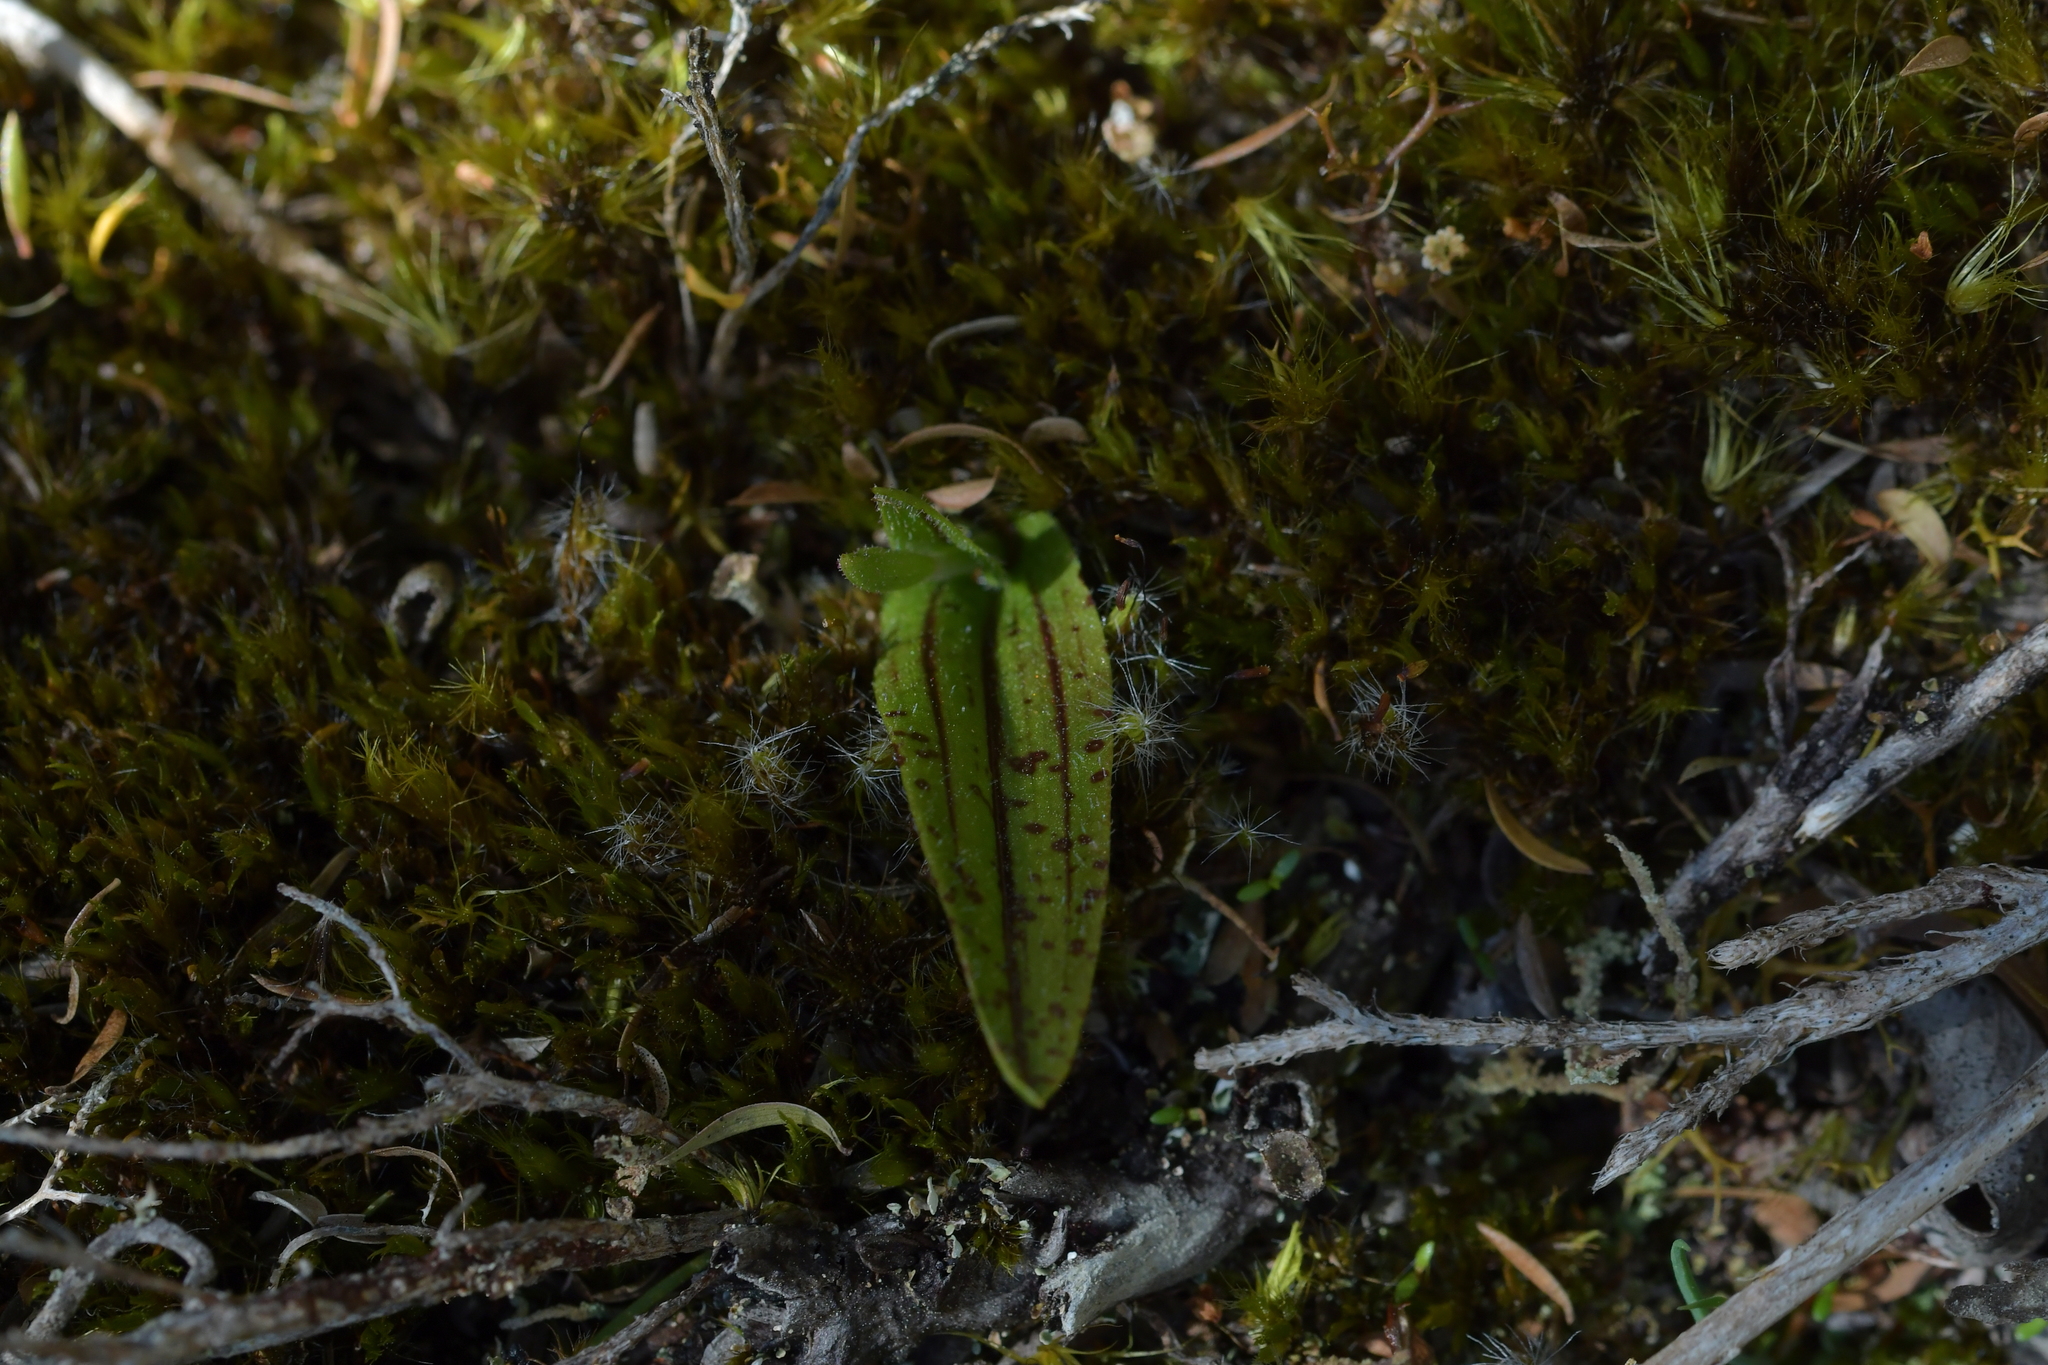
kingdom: Plantae
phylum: Tracheophyta
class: Liliopsida
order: Asparagales
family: Orchidaceae
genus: Aporostylis
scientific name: Aporostylis bifolia
